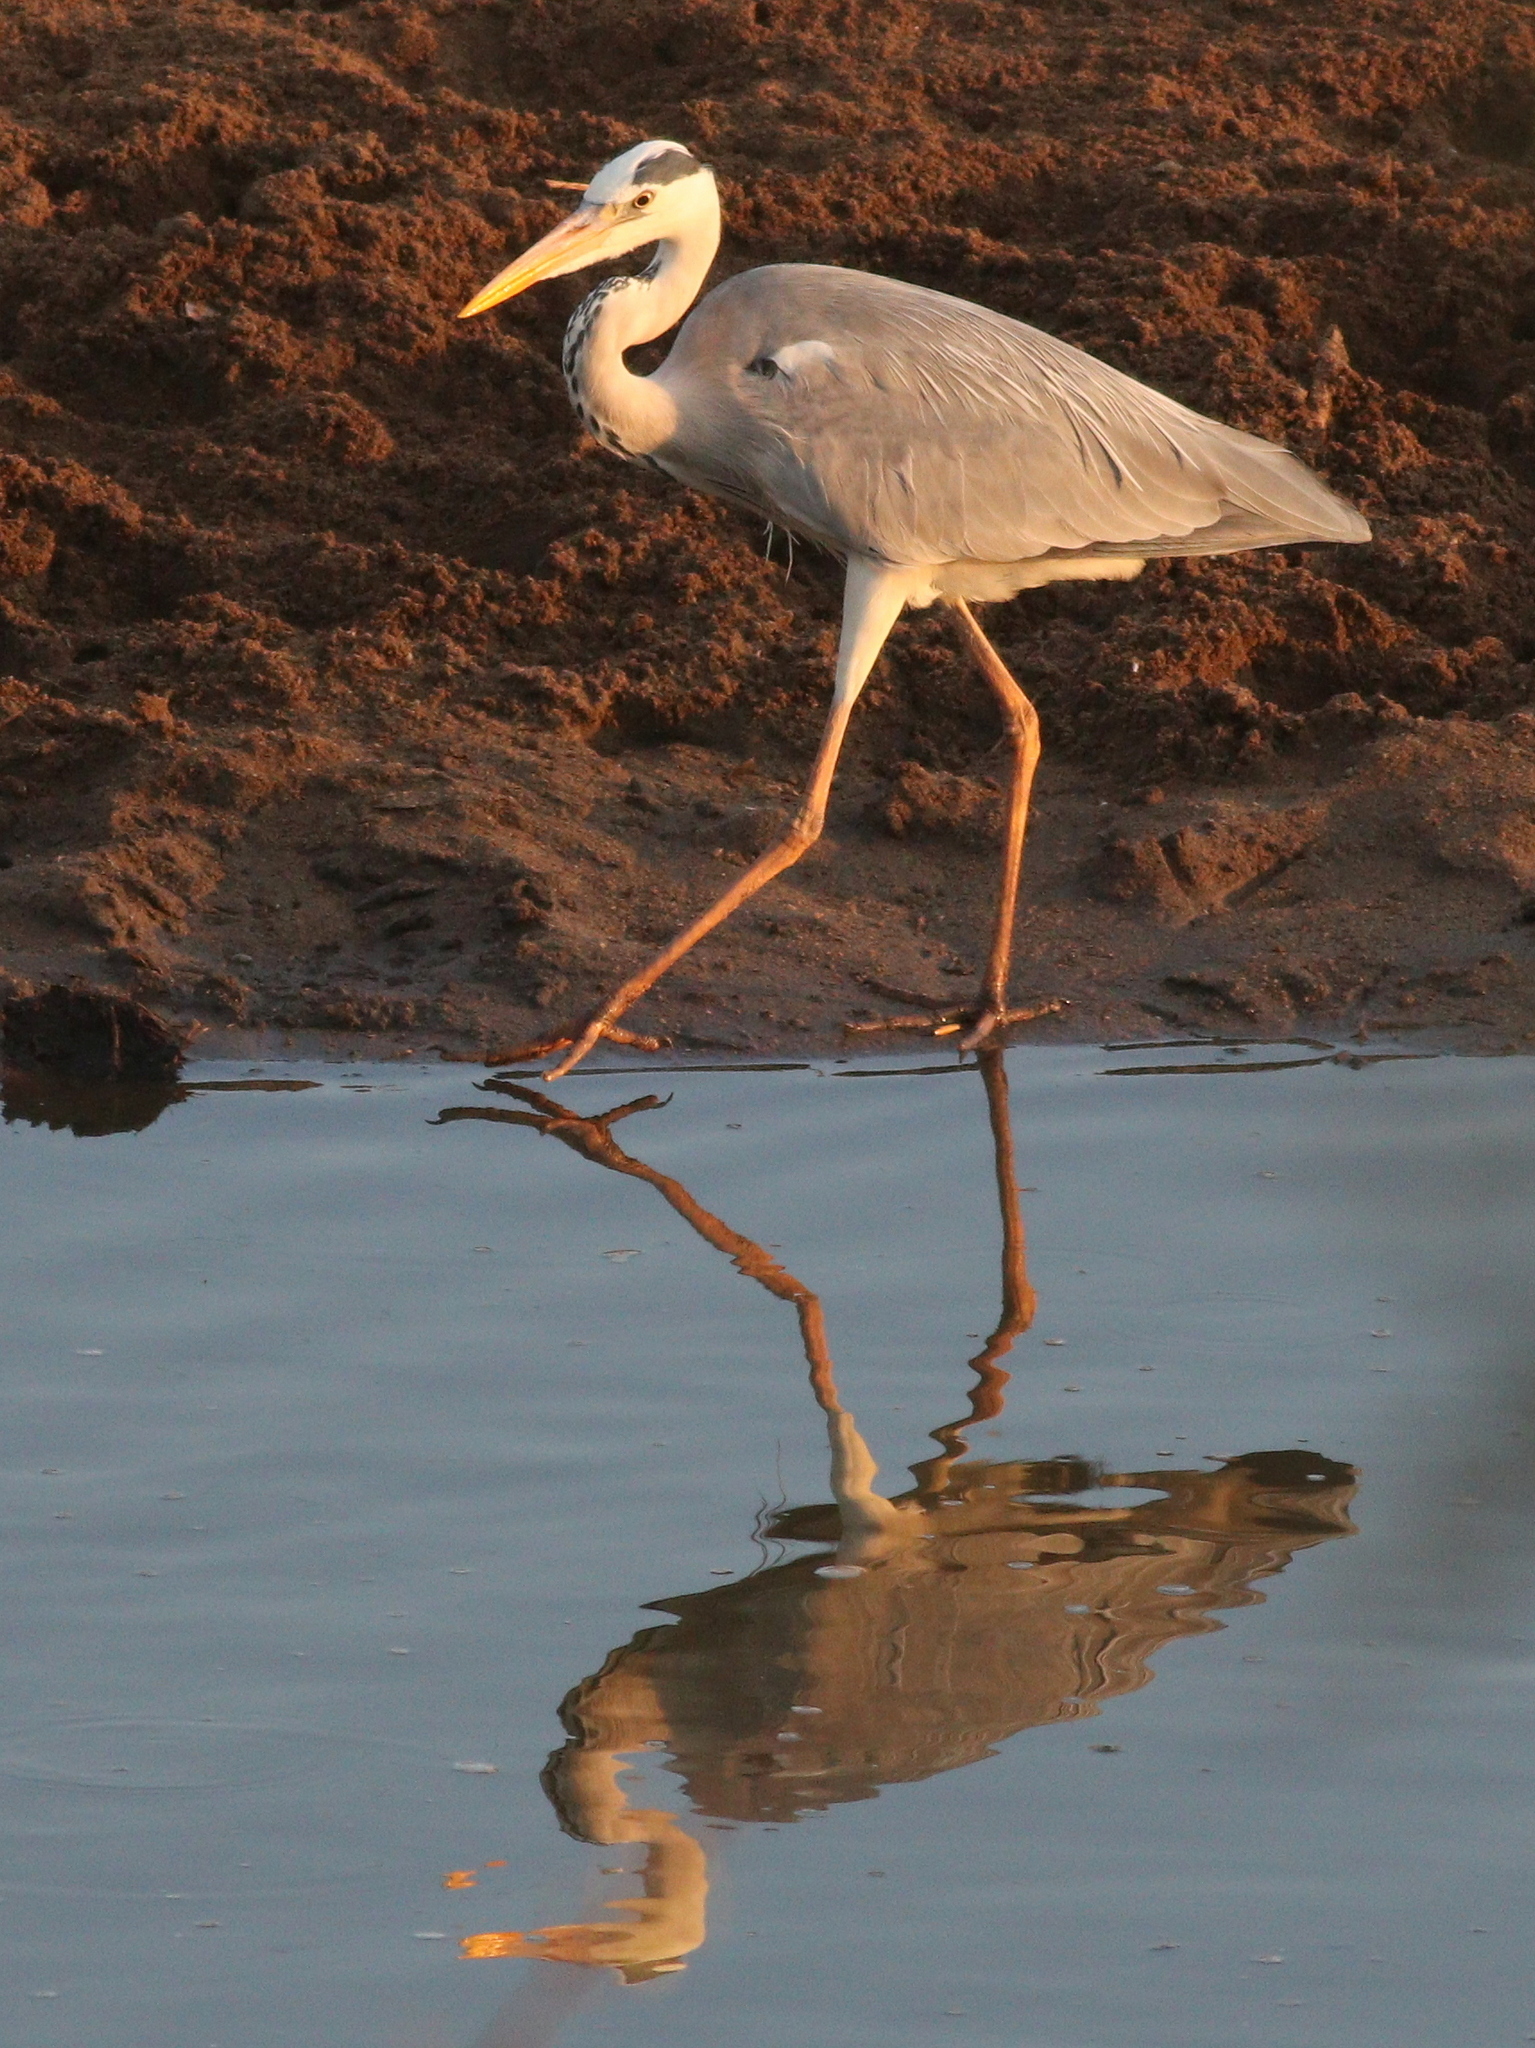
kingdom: Animalia
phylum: Chordata
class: Aves
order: Pelecaniformes
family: Ardeidae
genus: Ardea
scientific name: Ardea cinerea
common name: Grey heron
